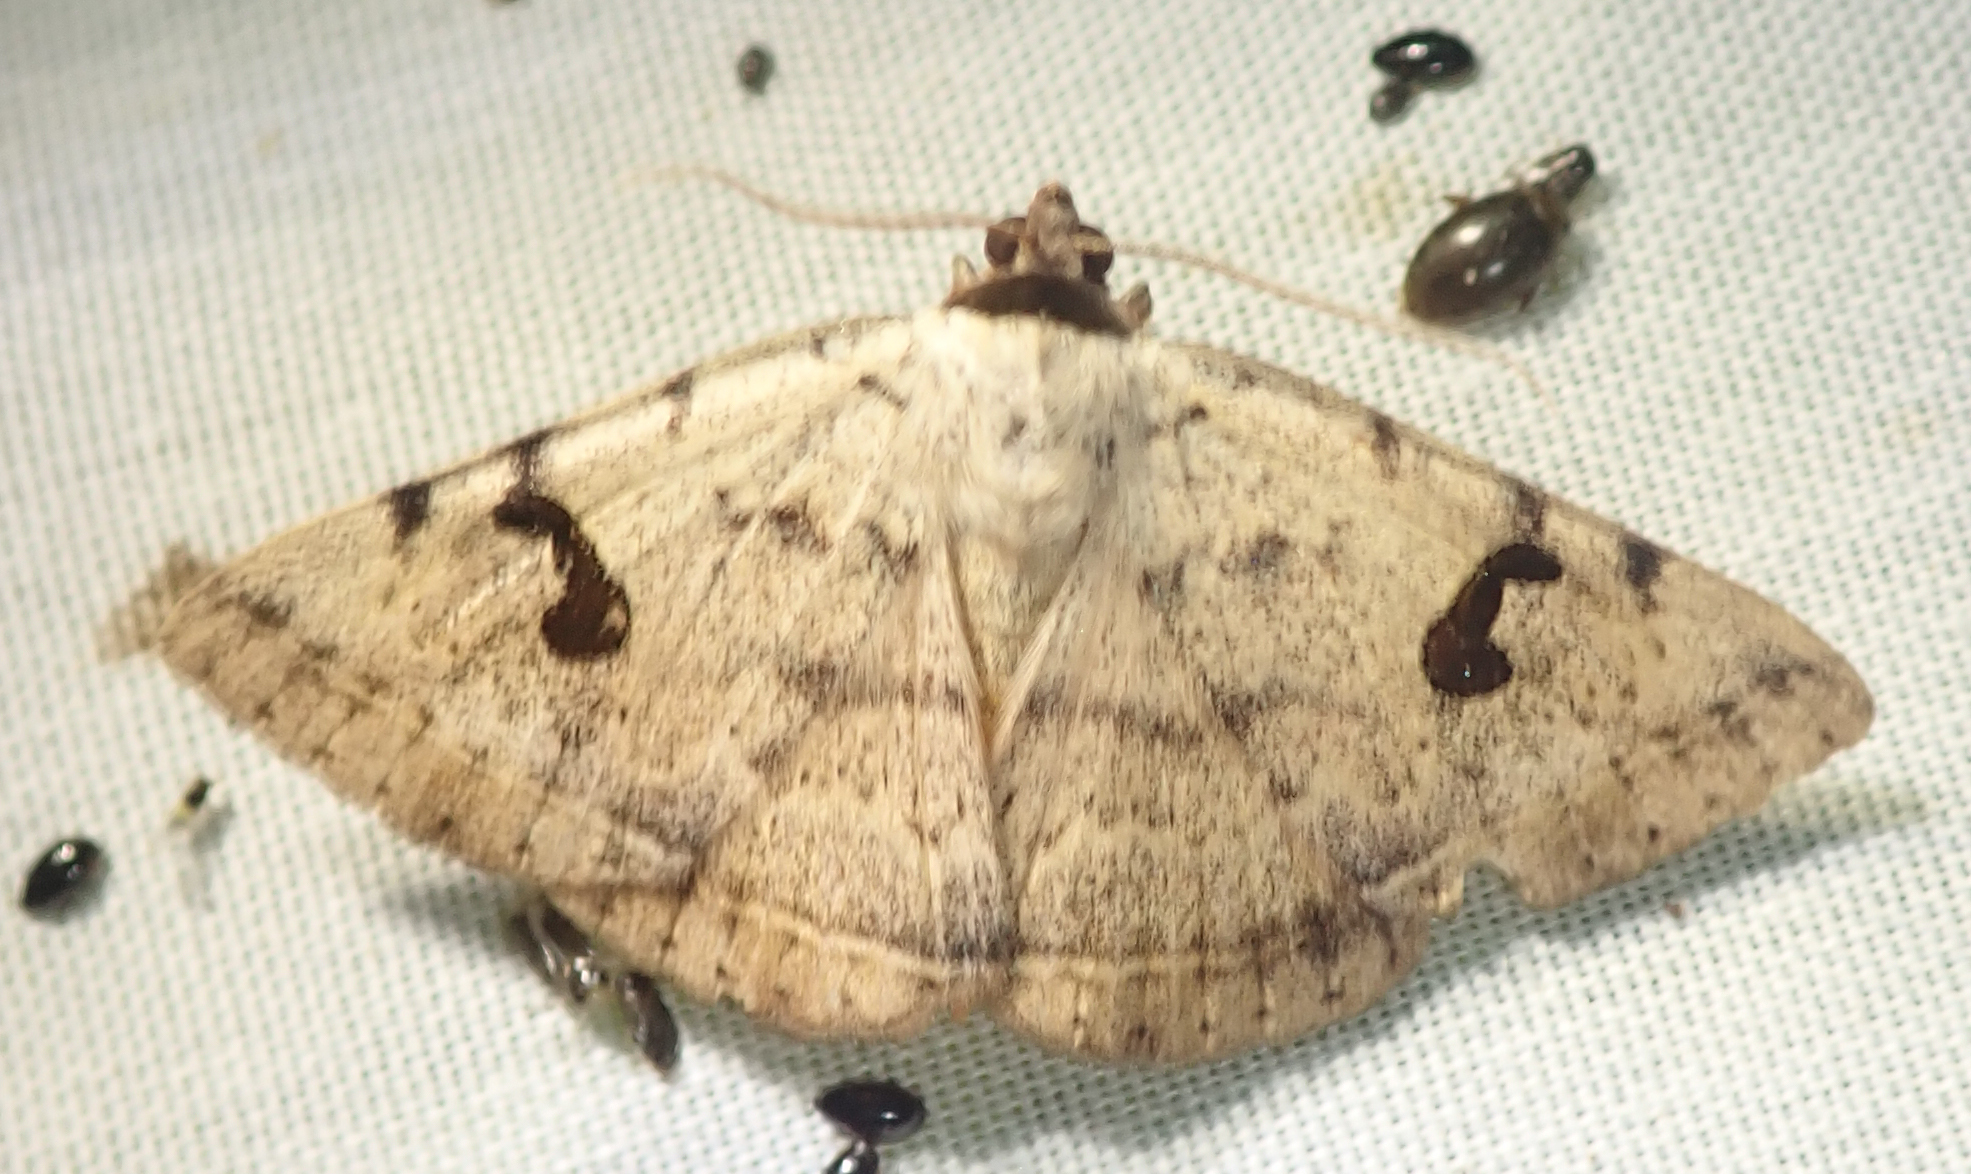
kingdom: Animalia
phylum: Arthropoda
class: Insecta
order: Lepidoptera
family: Erebidae
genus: Hypopyra
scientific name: Hypopyra africana
